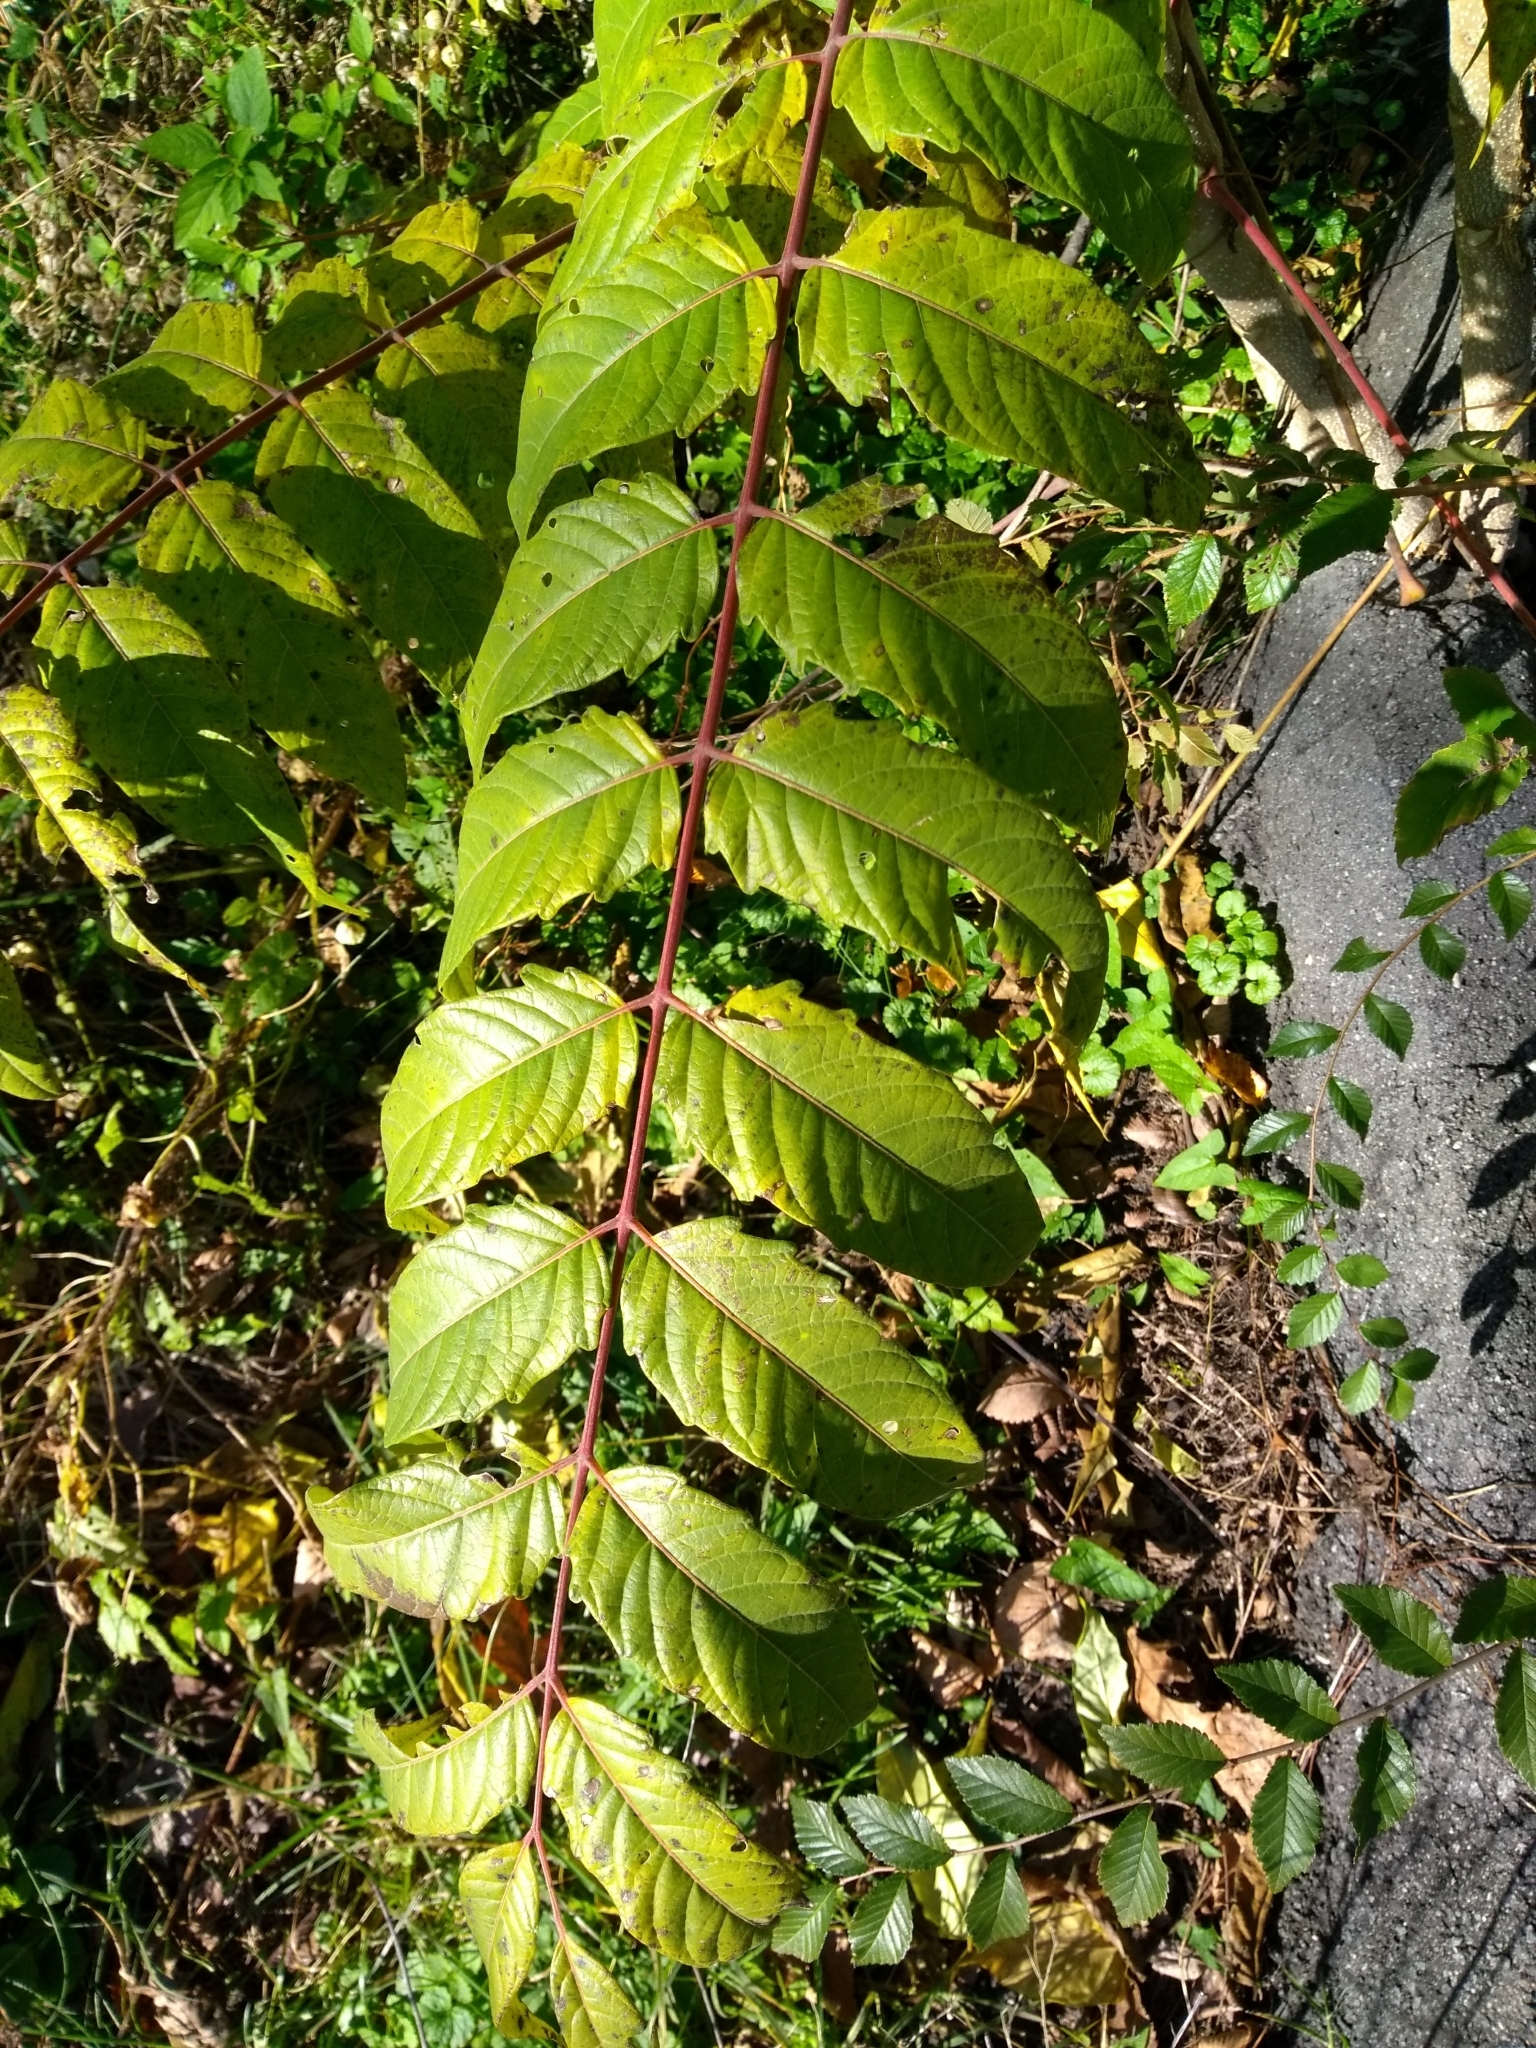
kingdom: Plantae
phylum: Tracheophyta
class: Magnoliopsida
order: Sapindales
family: Simaroubaceae
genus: Ailanthus
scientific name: Ailanthus altissima
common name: Tree-of-heaven
